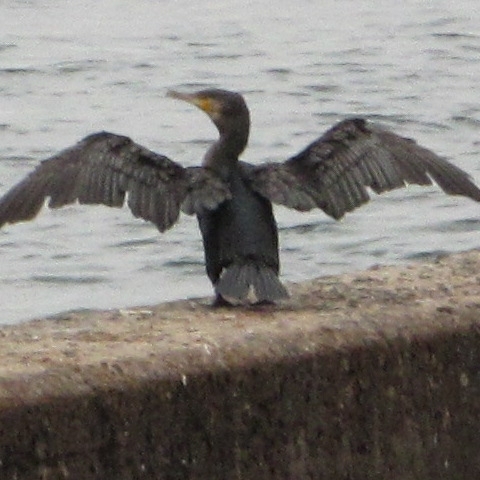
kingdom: Animalia
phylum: Chordata
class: Aves
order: Suliformes
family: Phalacrocoracidae
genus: Phalacrocorax
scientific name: Phalacrocorax carbo
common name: Great cormorant
